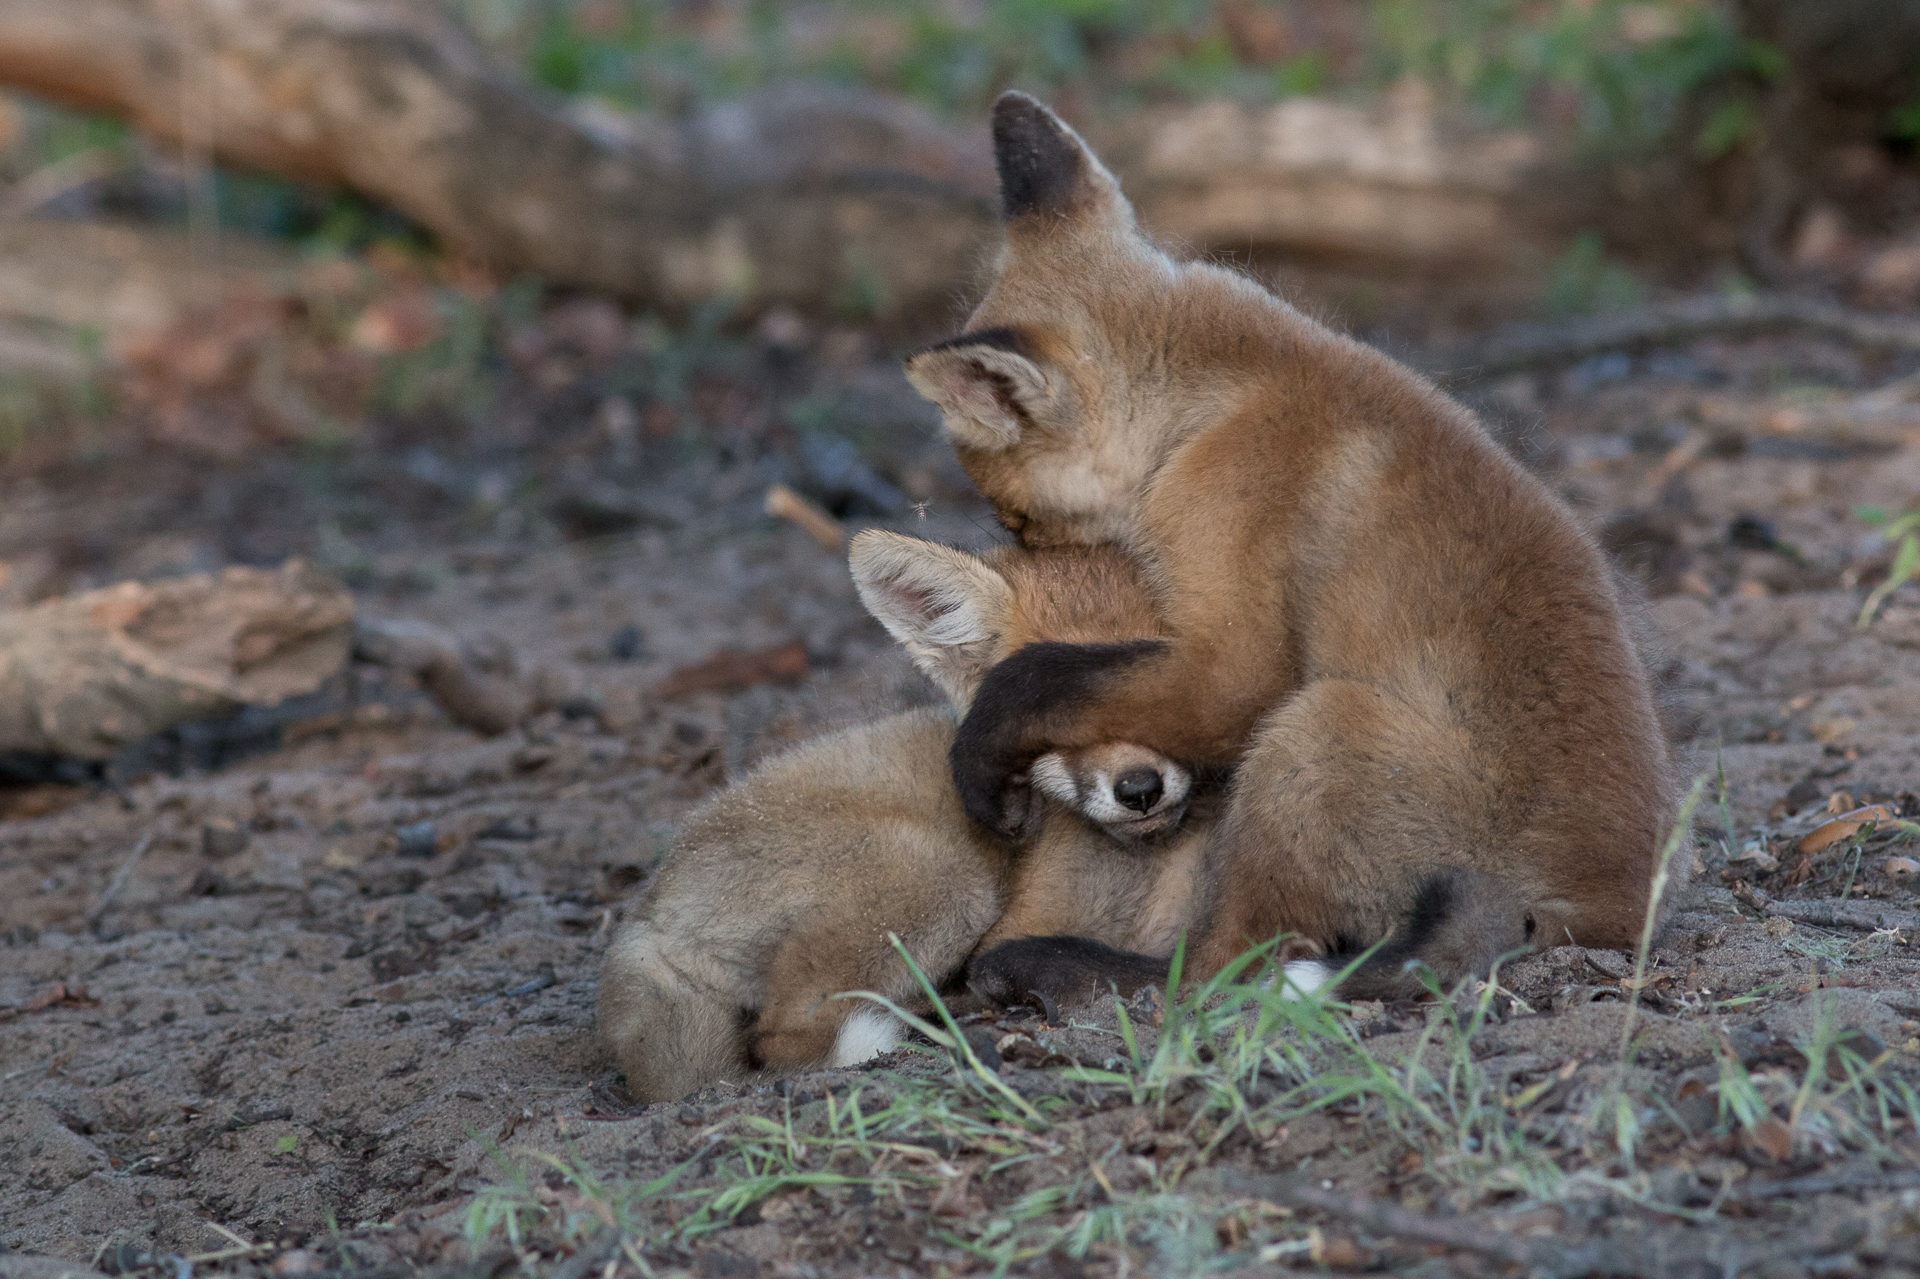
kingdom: Animalia
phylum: Chordata
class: Mammalia
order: Carnivora
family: Canidae
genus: Vulpes
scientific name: Vulpes vulpes
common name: Red fox
